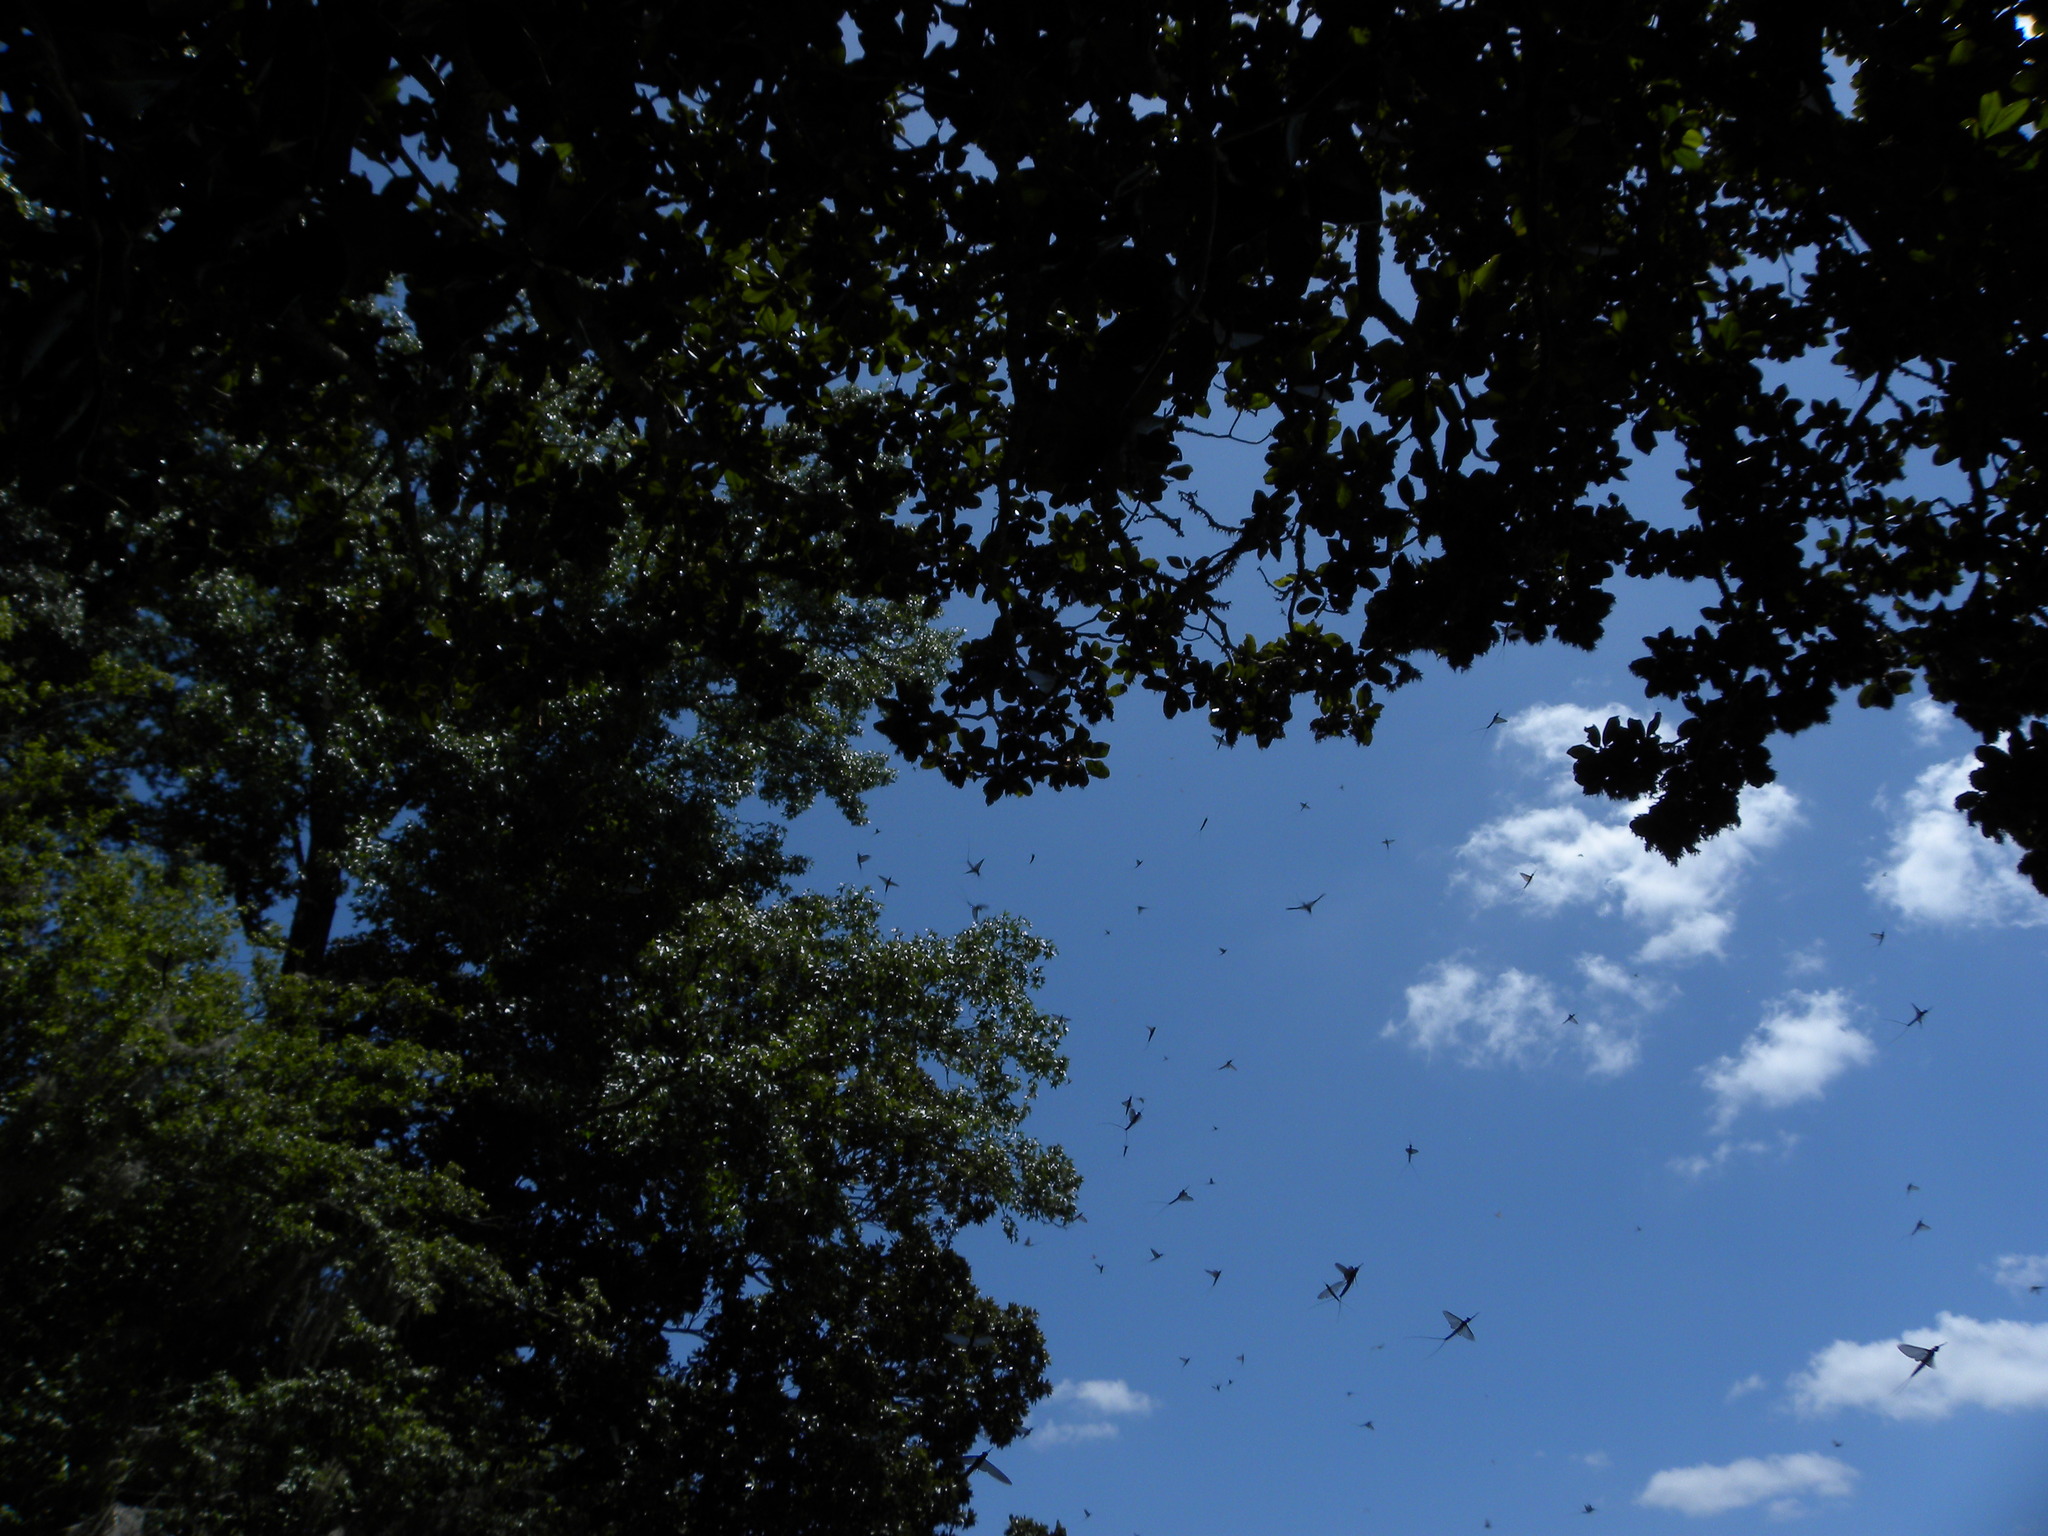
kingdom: Animalia
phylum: Arthropoda
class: Insecta
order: Ephemeroptera
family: Ephemeridae
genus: Hexagenia
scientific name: Hexagenia bilineata
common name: Emergent mayfly
